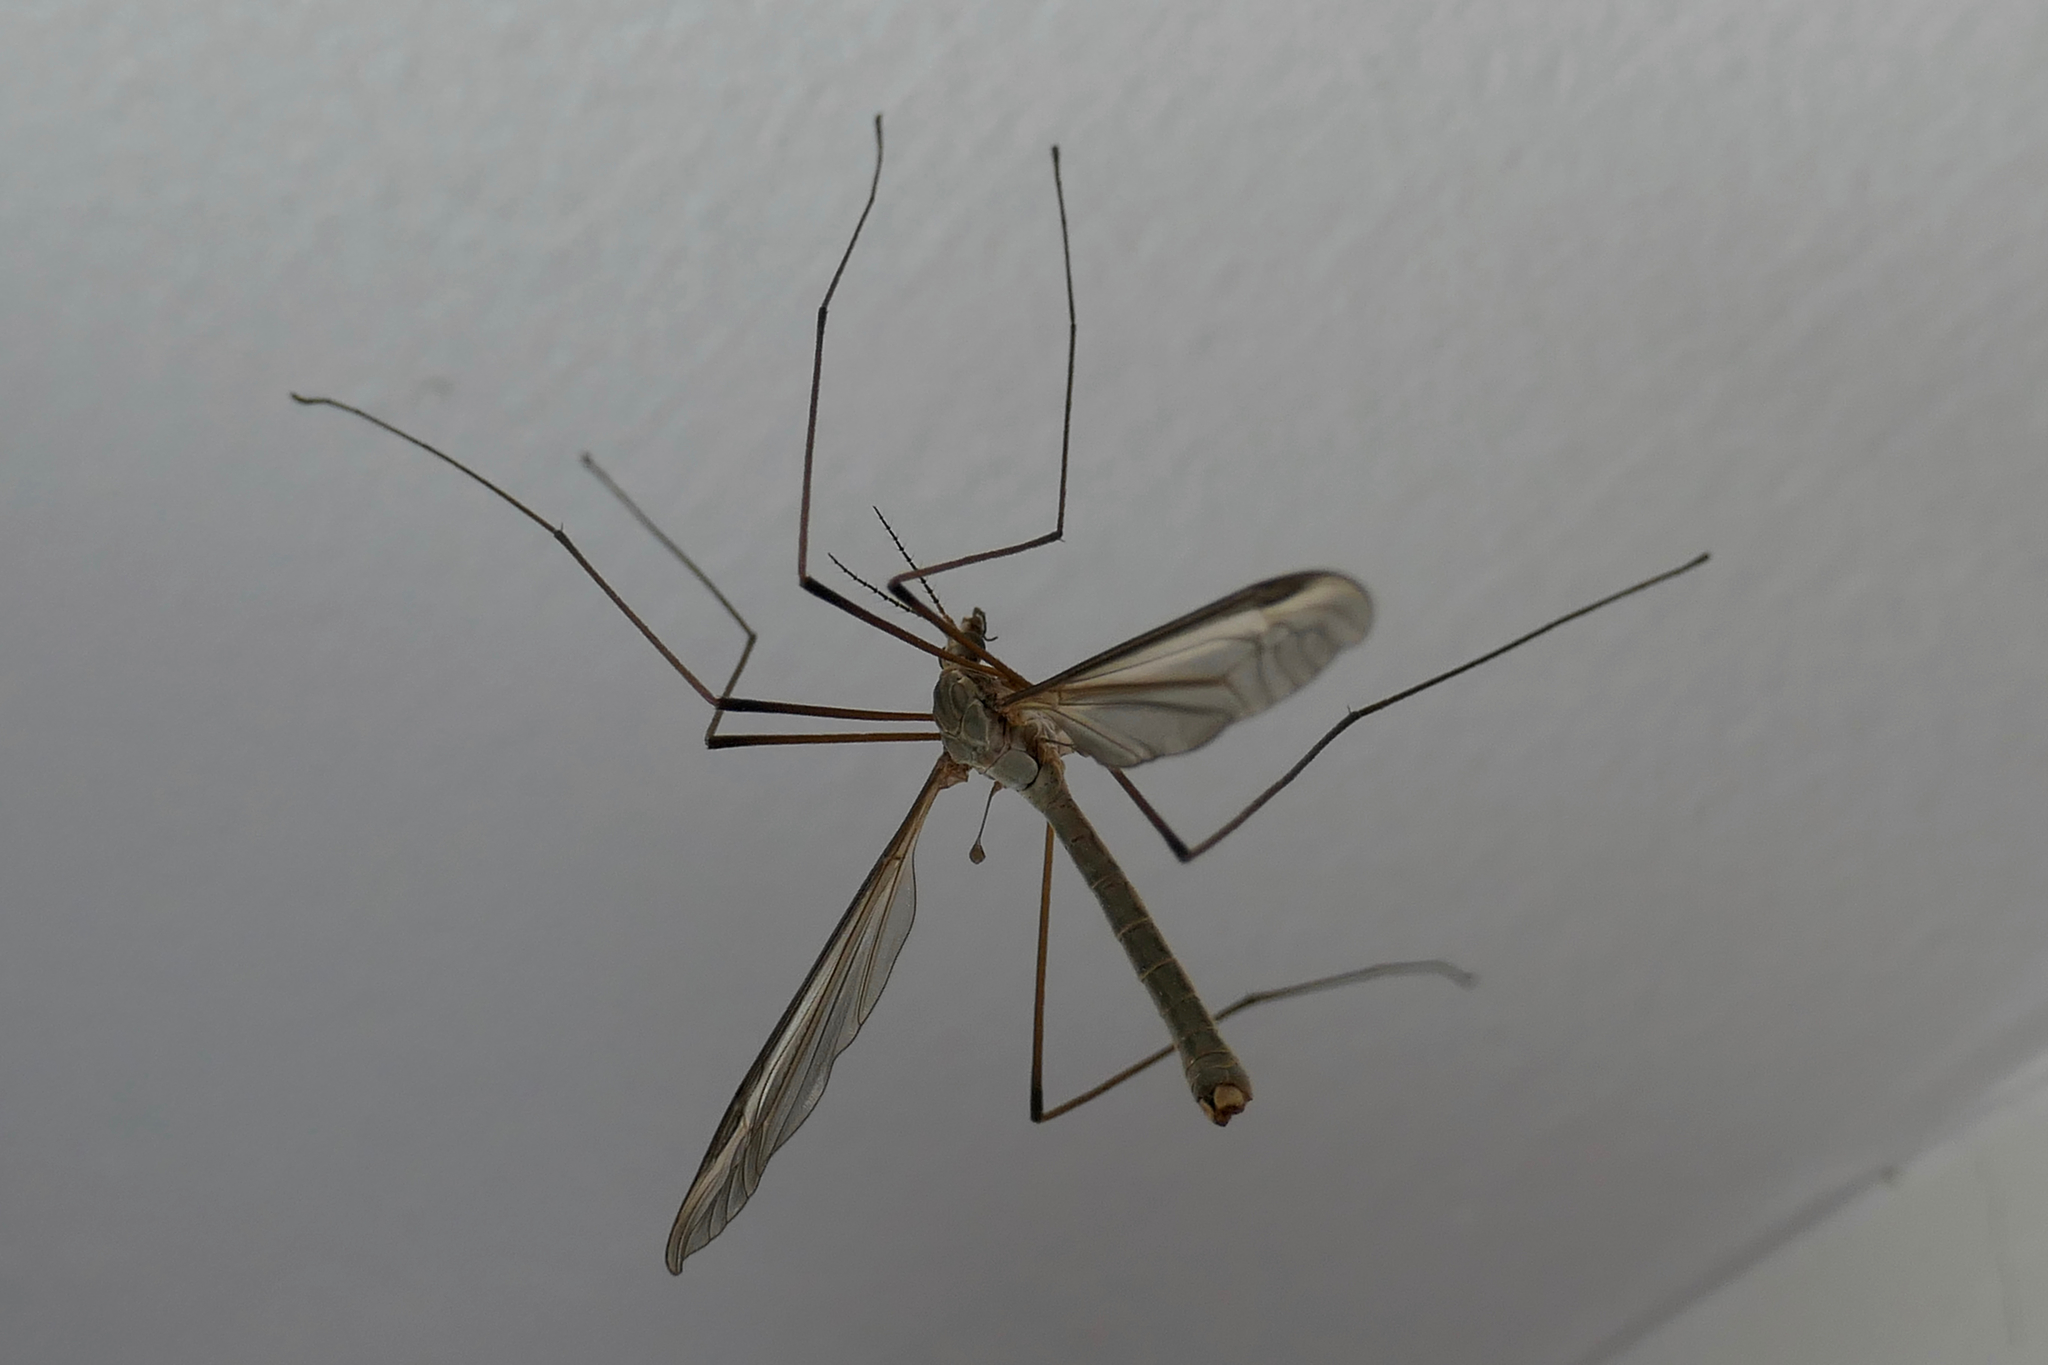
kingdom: Animalia
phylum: Arthropoda
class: Insecta
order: Diptera
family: Tipulidae
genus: Tipula
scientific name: Tipula oleracea
